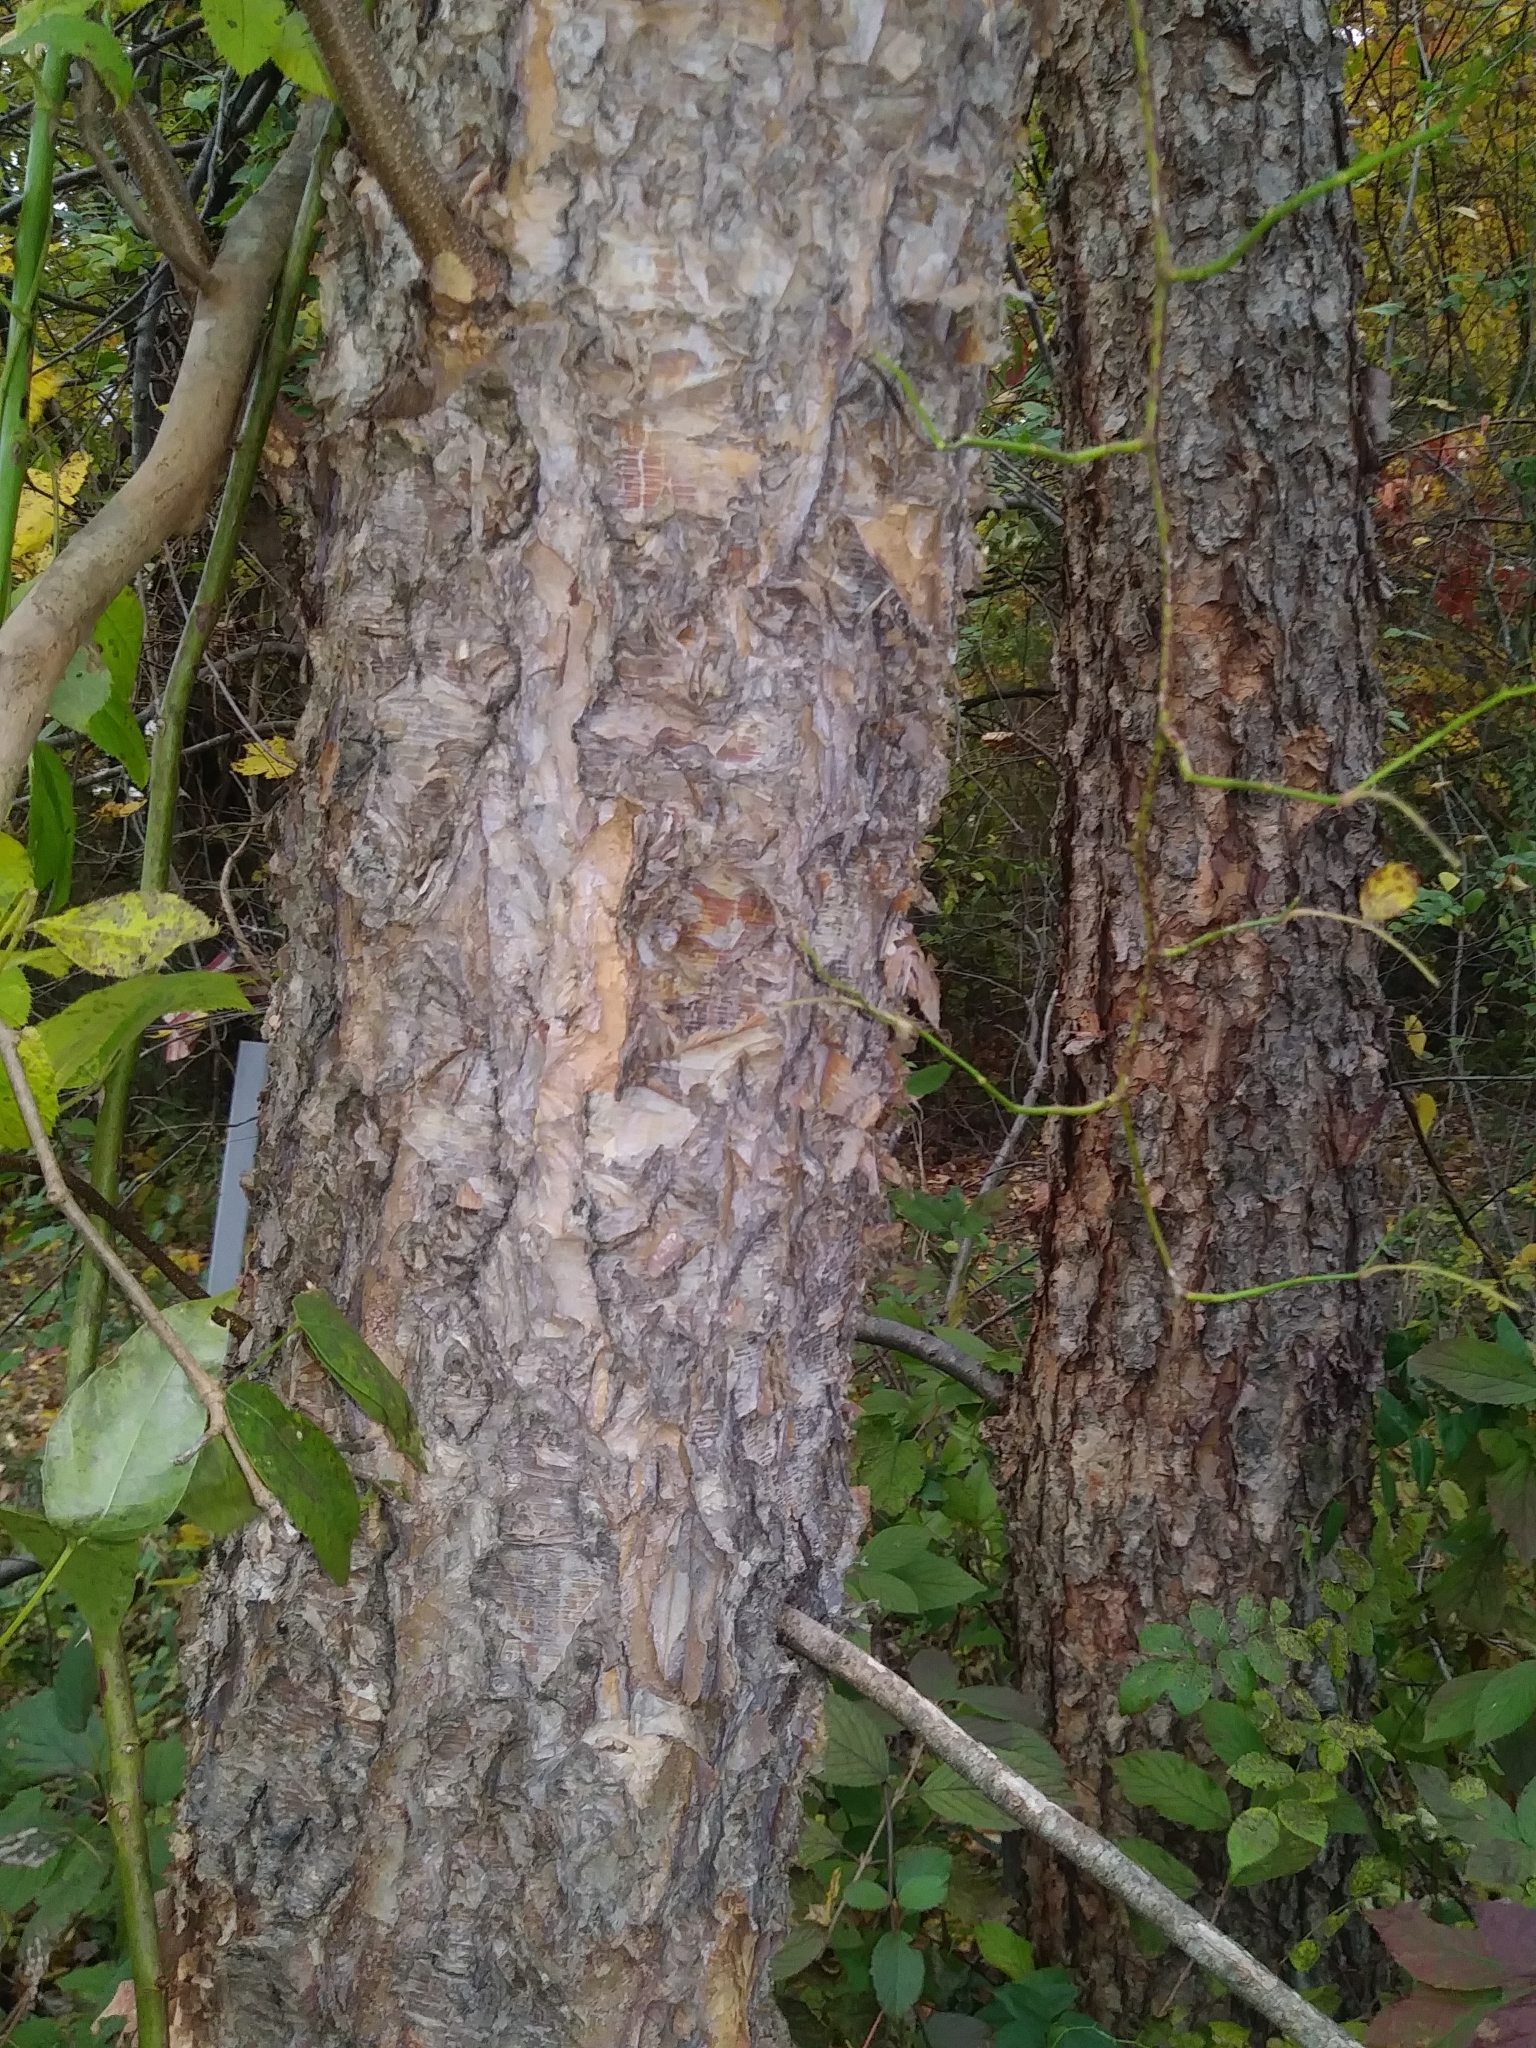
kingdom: Plantae
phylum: Tracheophyta
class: Magnoliopsida
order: Fagales
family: Betulaceae
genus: Betula
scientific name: Betula nigra
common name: Black birch
